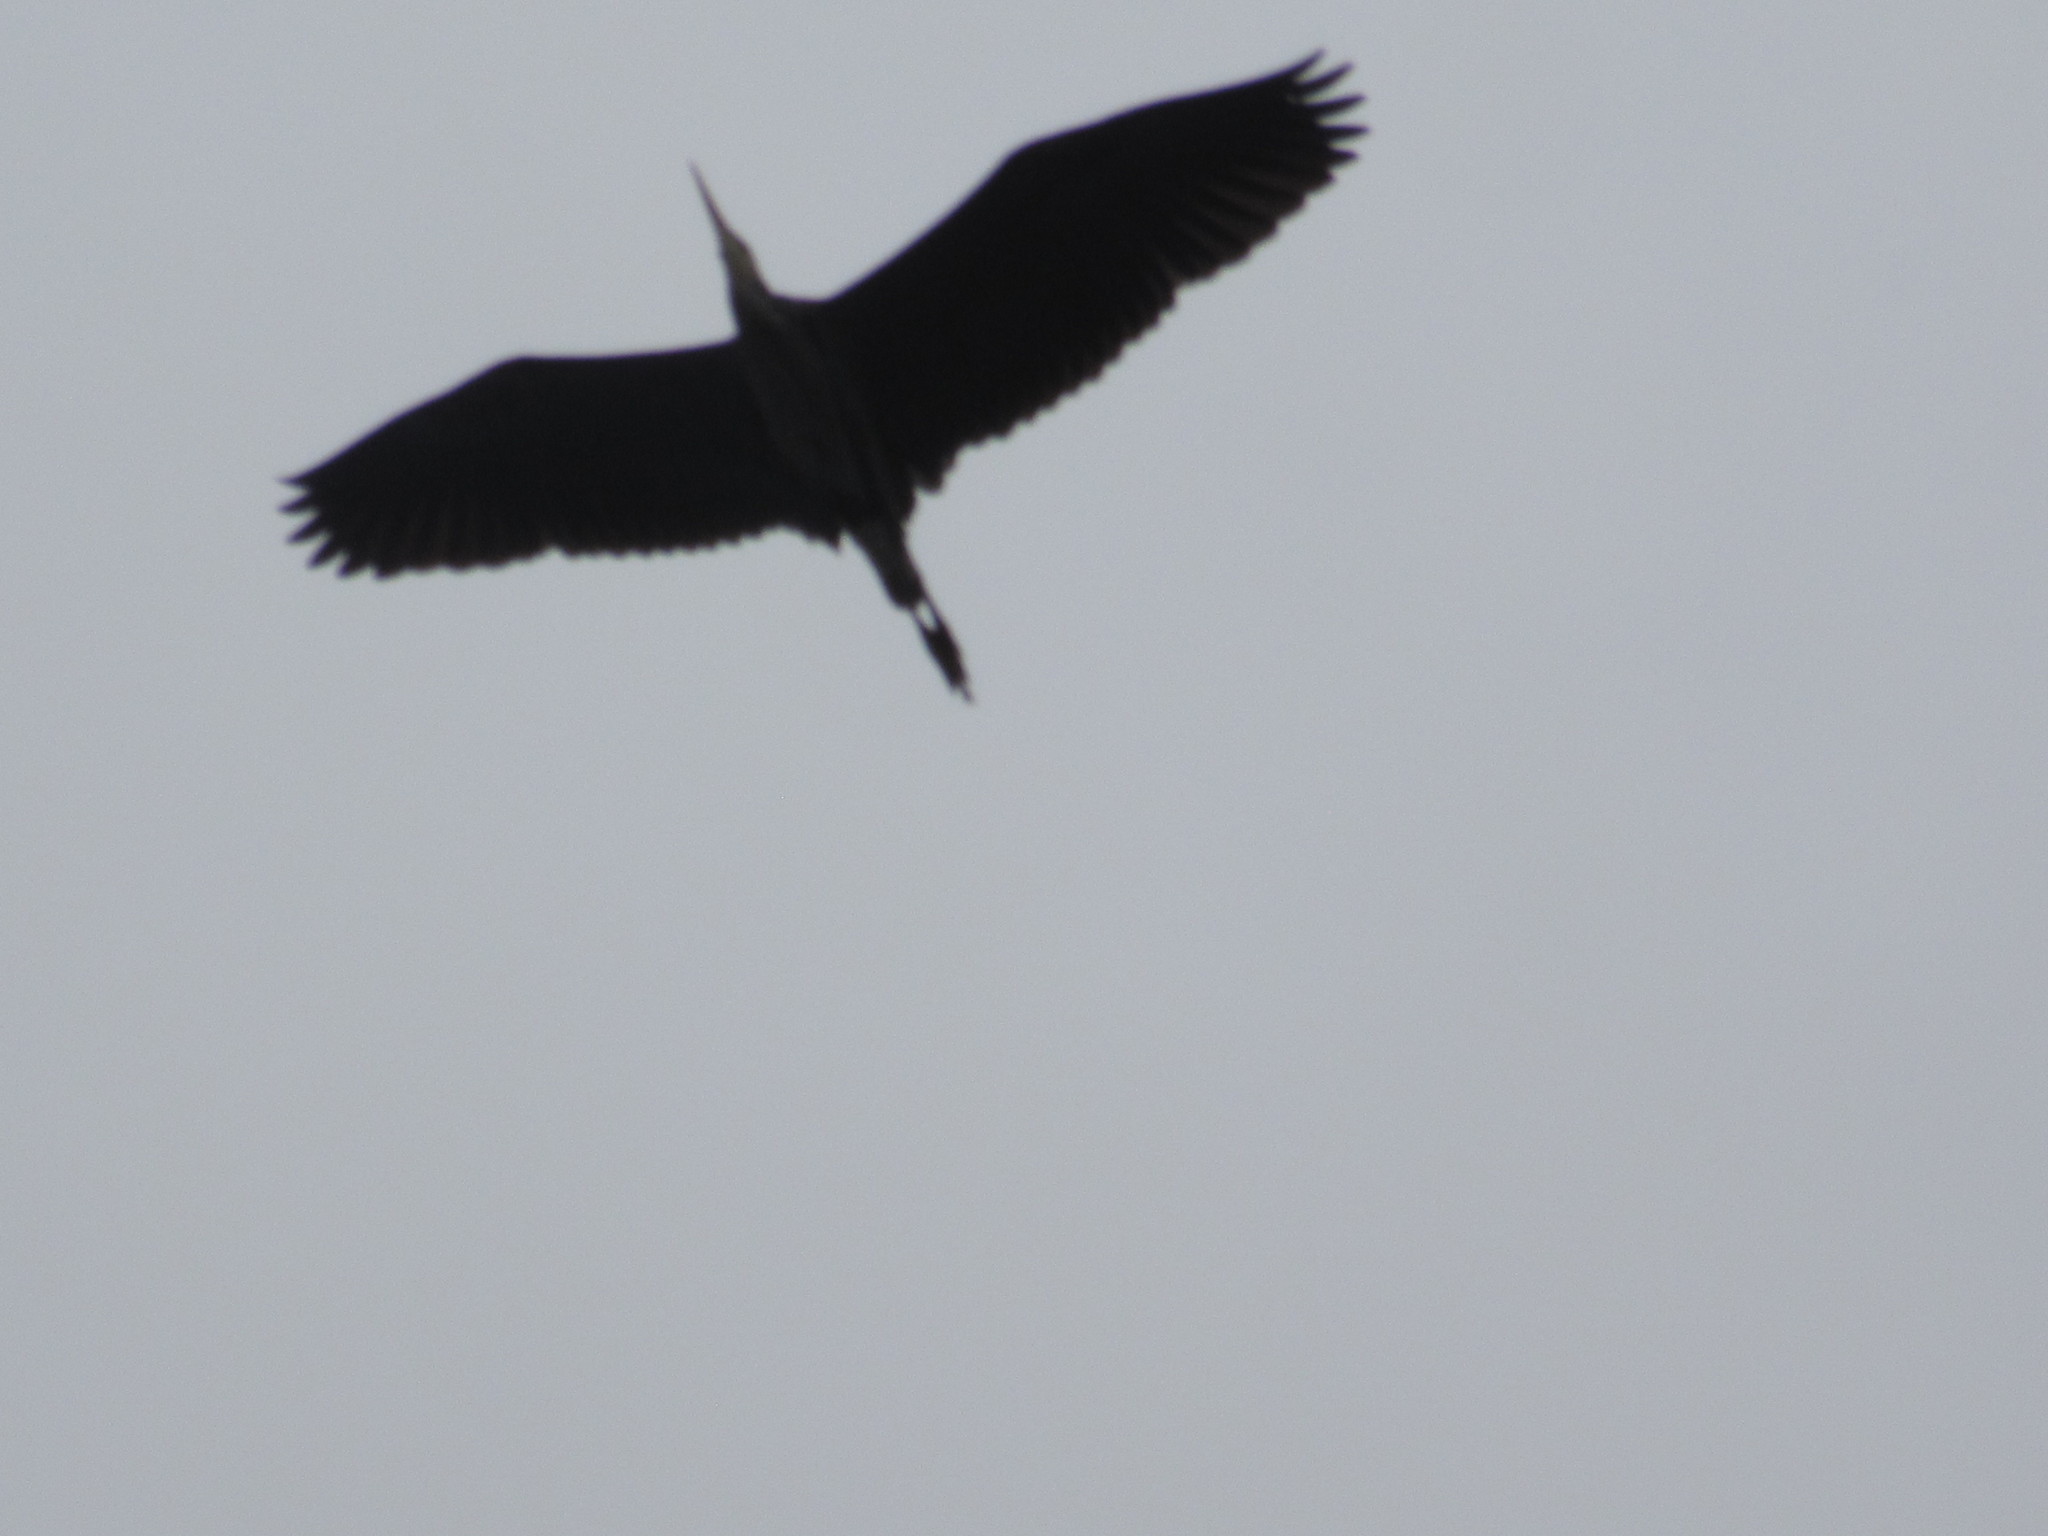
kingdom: Animalia
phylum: Chordata
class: Aves
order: Pelecaniformes
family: Ardeidae
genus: Ardea
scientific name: Ardea herodias
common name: Great blue heron
